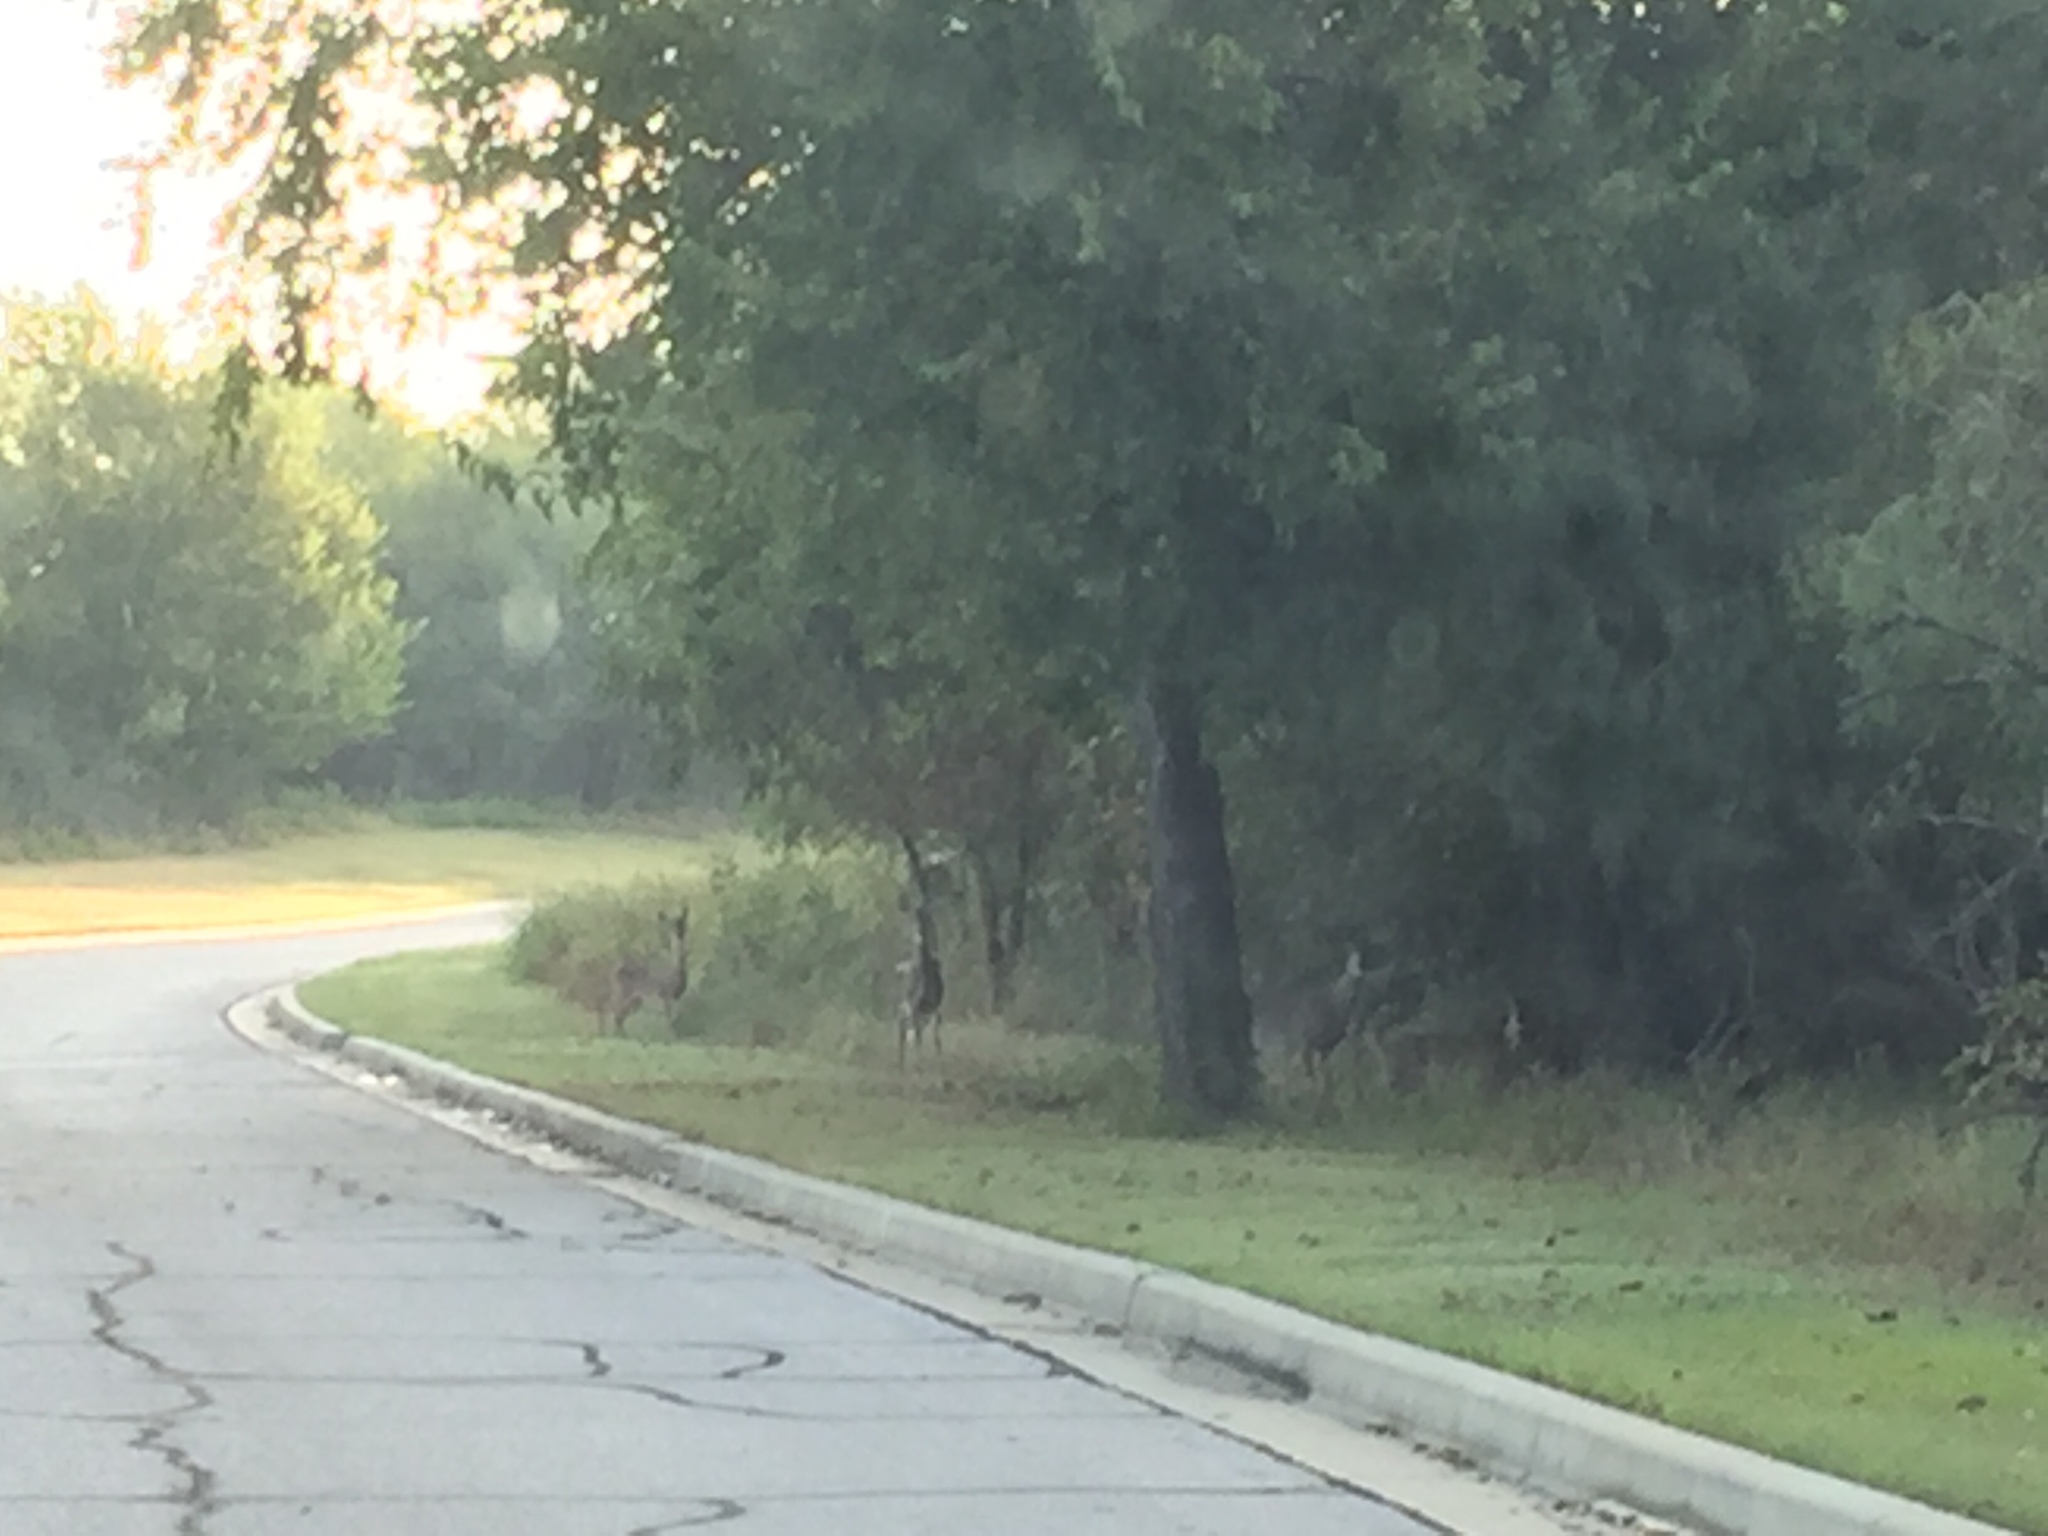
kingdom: Animalia
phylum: Chordata
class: Mammalia
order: Artiodactyla
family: Cervidae
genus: Odocoileus
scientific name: Odocoileus virginianus
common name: White-tailed deer
